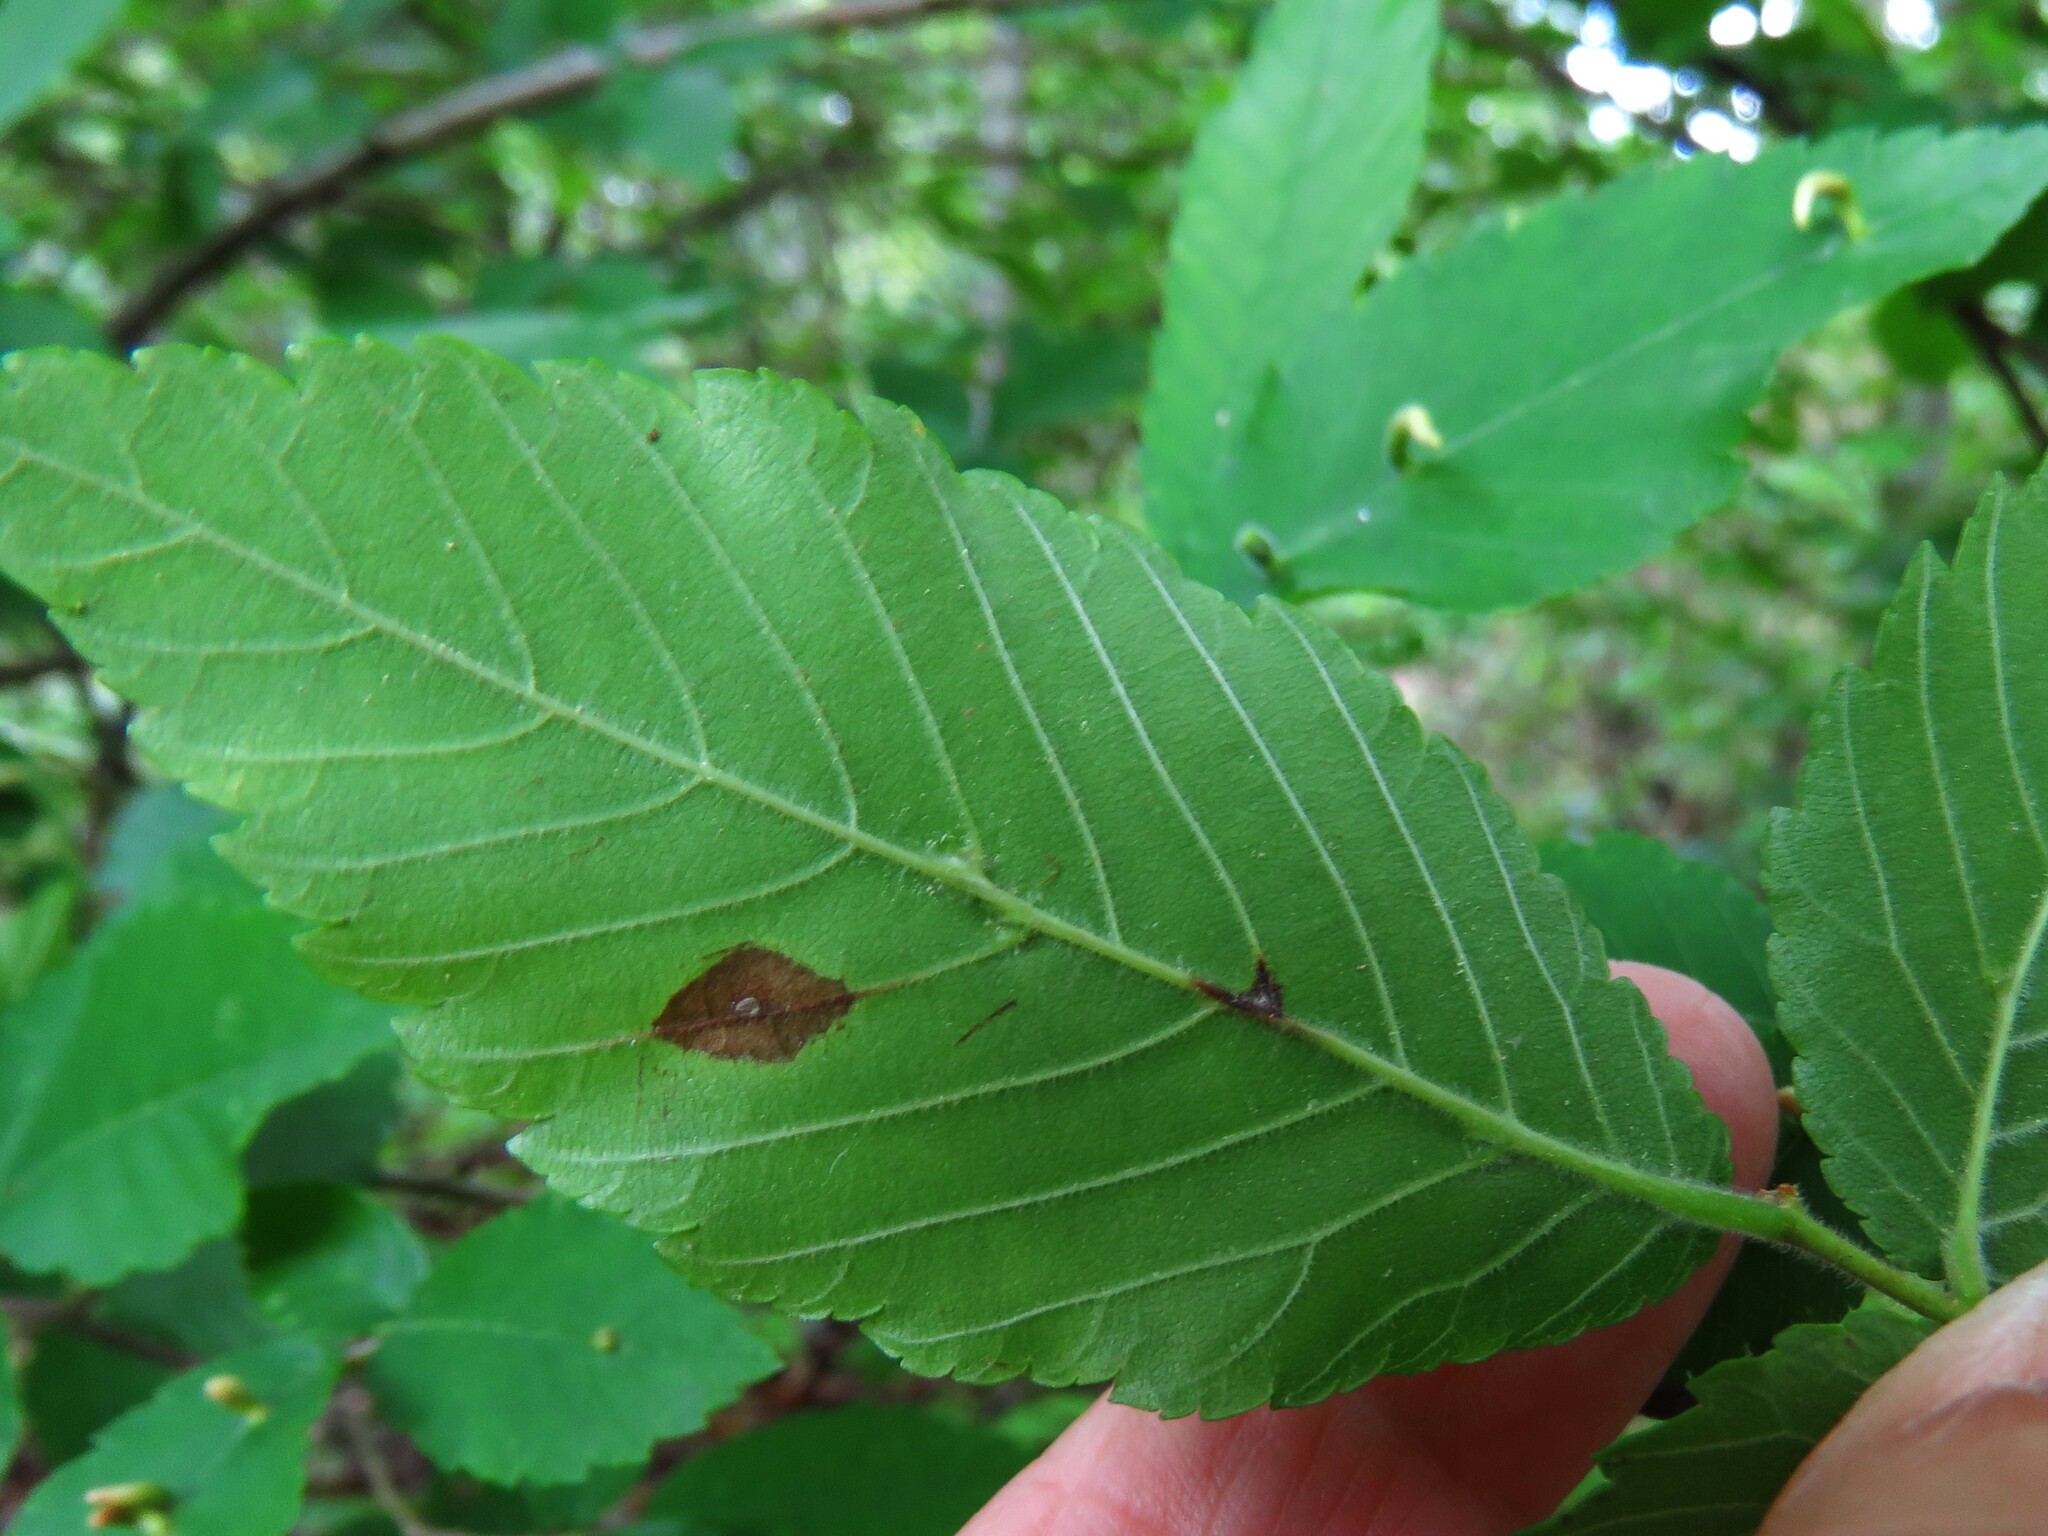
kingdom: Animalia
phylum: Arthropoda
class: Arachnida
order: Trombidiformes
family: Eriophyidae
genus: Aceria
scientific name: Aceria
